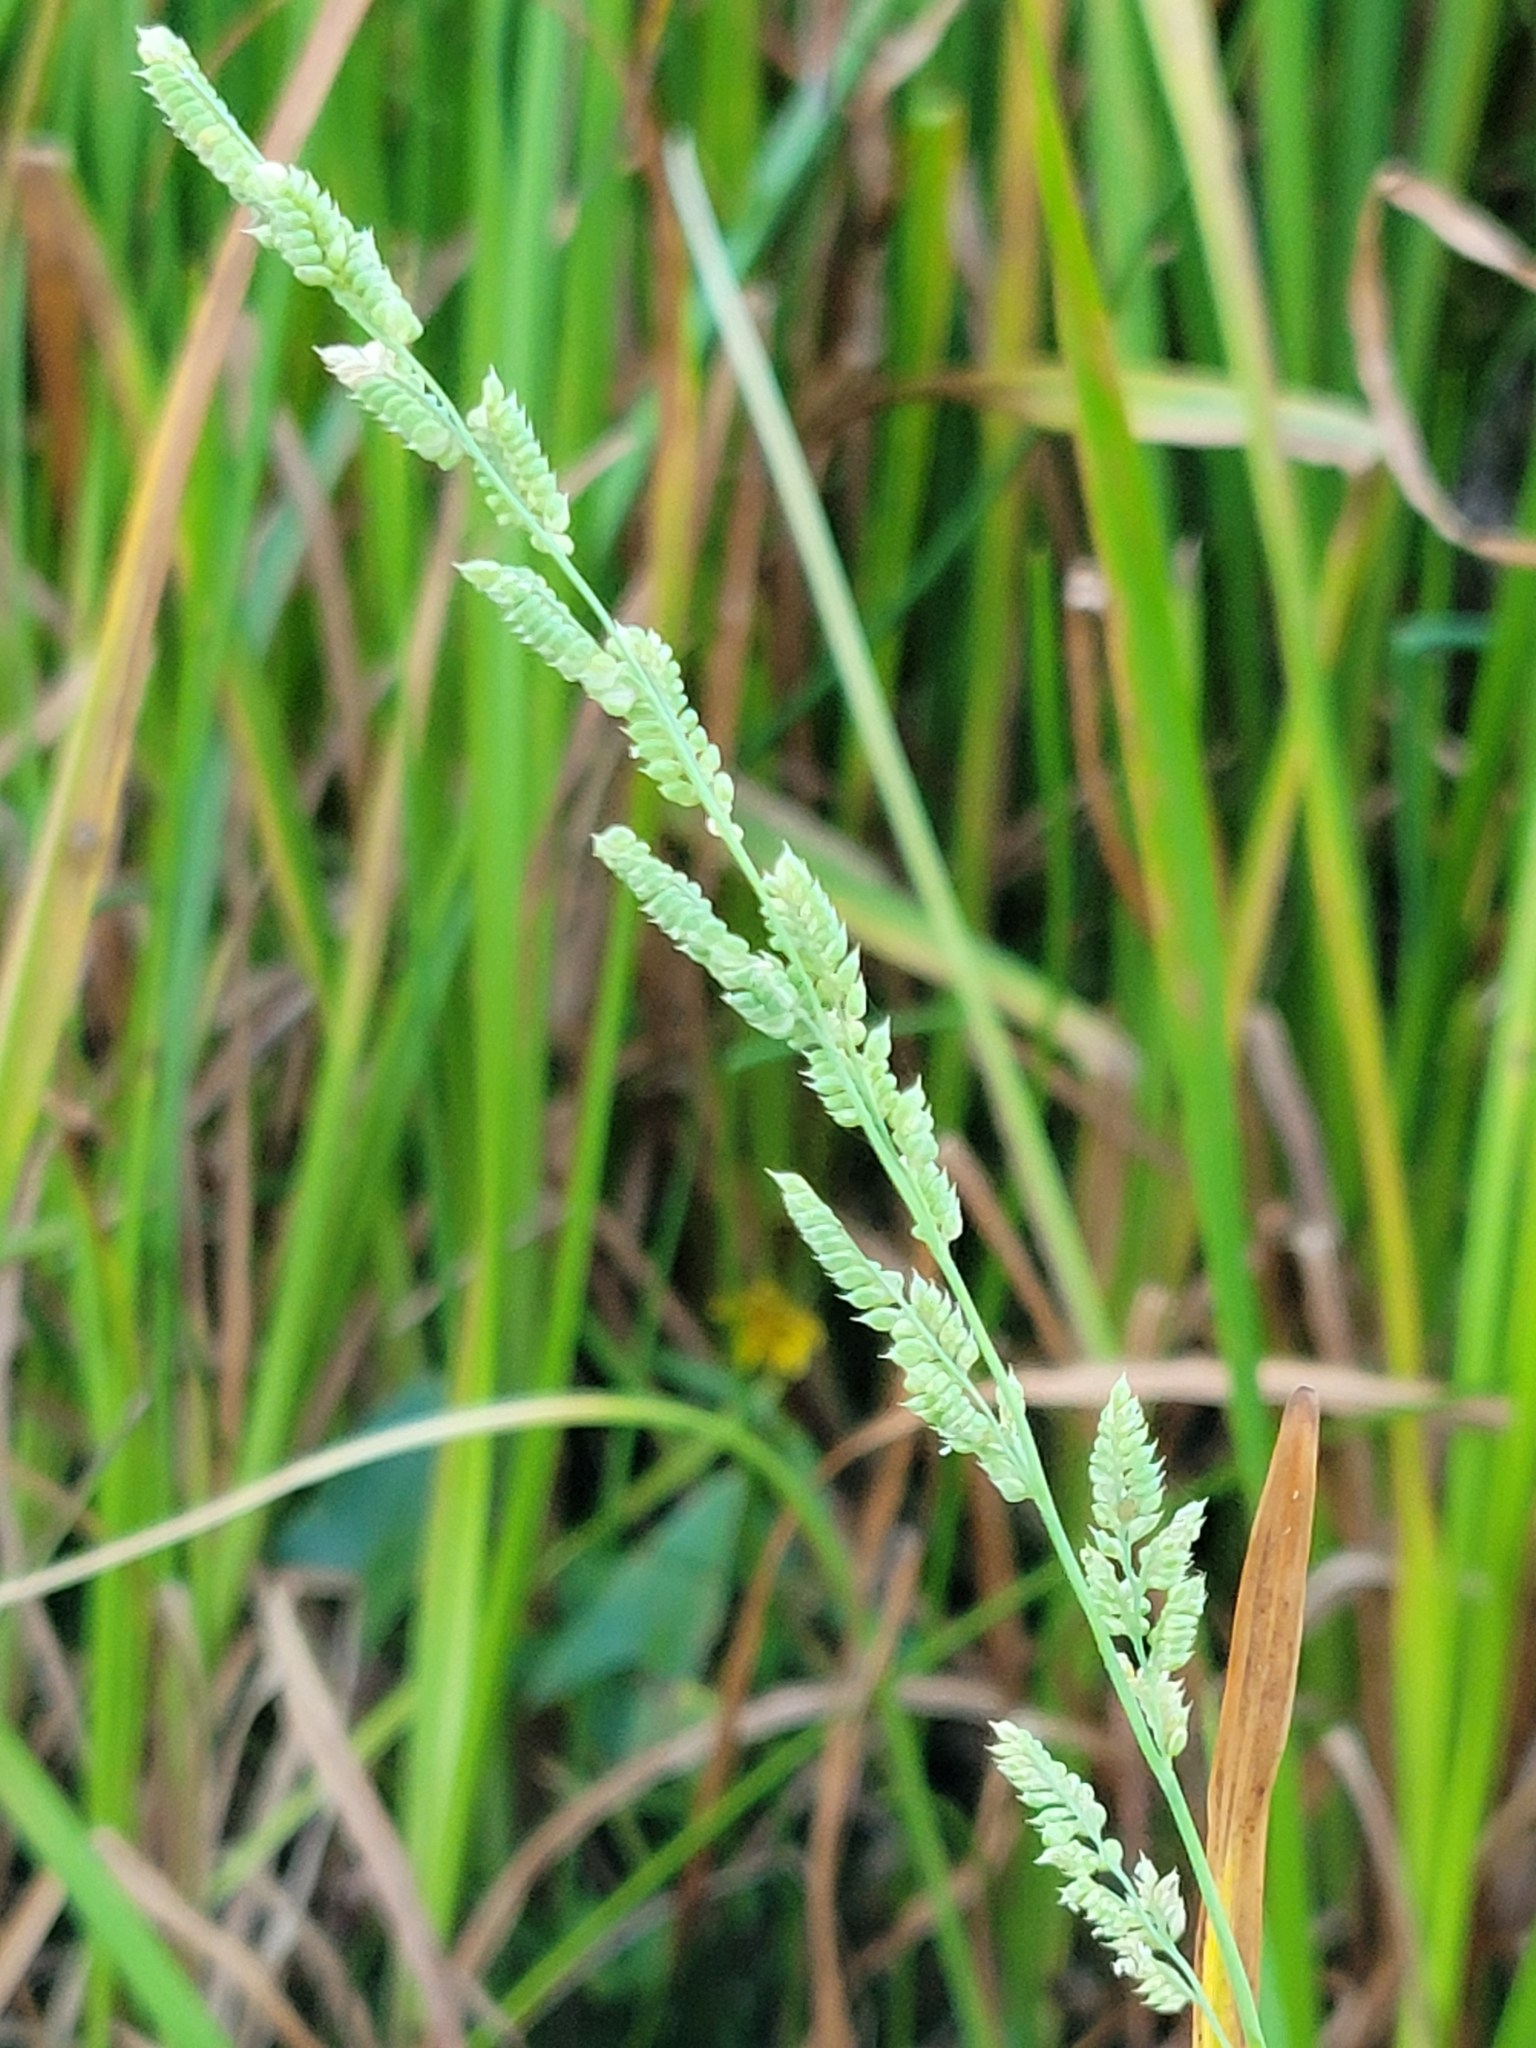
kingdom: Plantae
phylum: Tracheophyta
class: Liliopsida
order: Poales
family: Poaceae
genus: Beckmannia
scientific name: Beckmannia syzigachne
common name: American slough-grass
